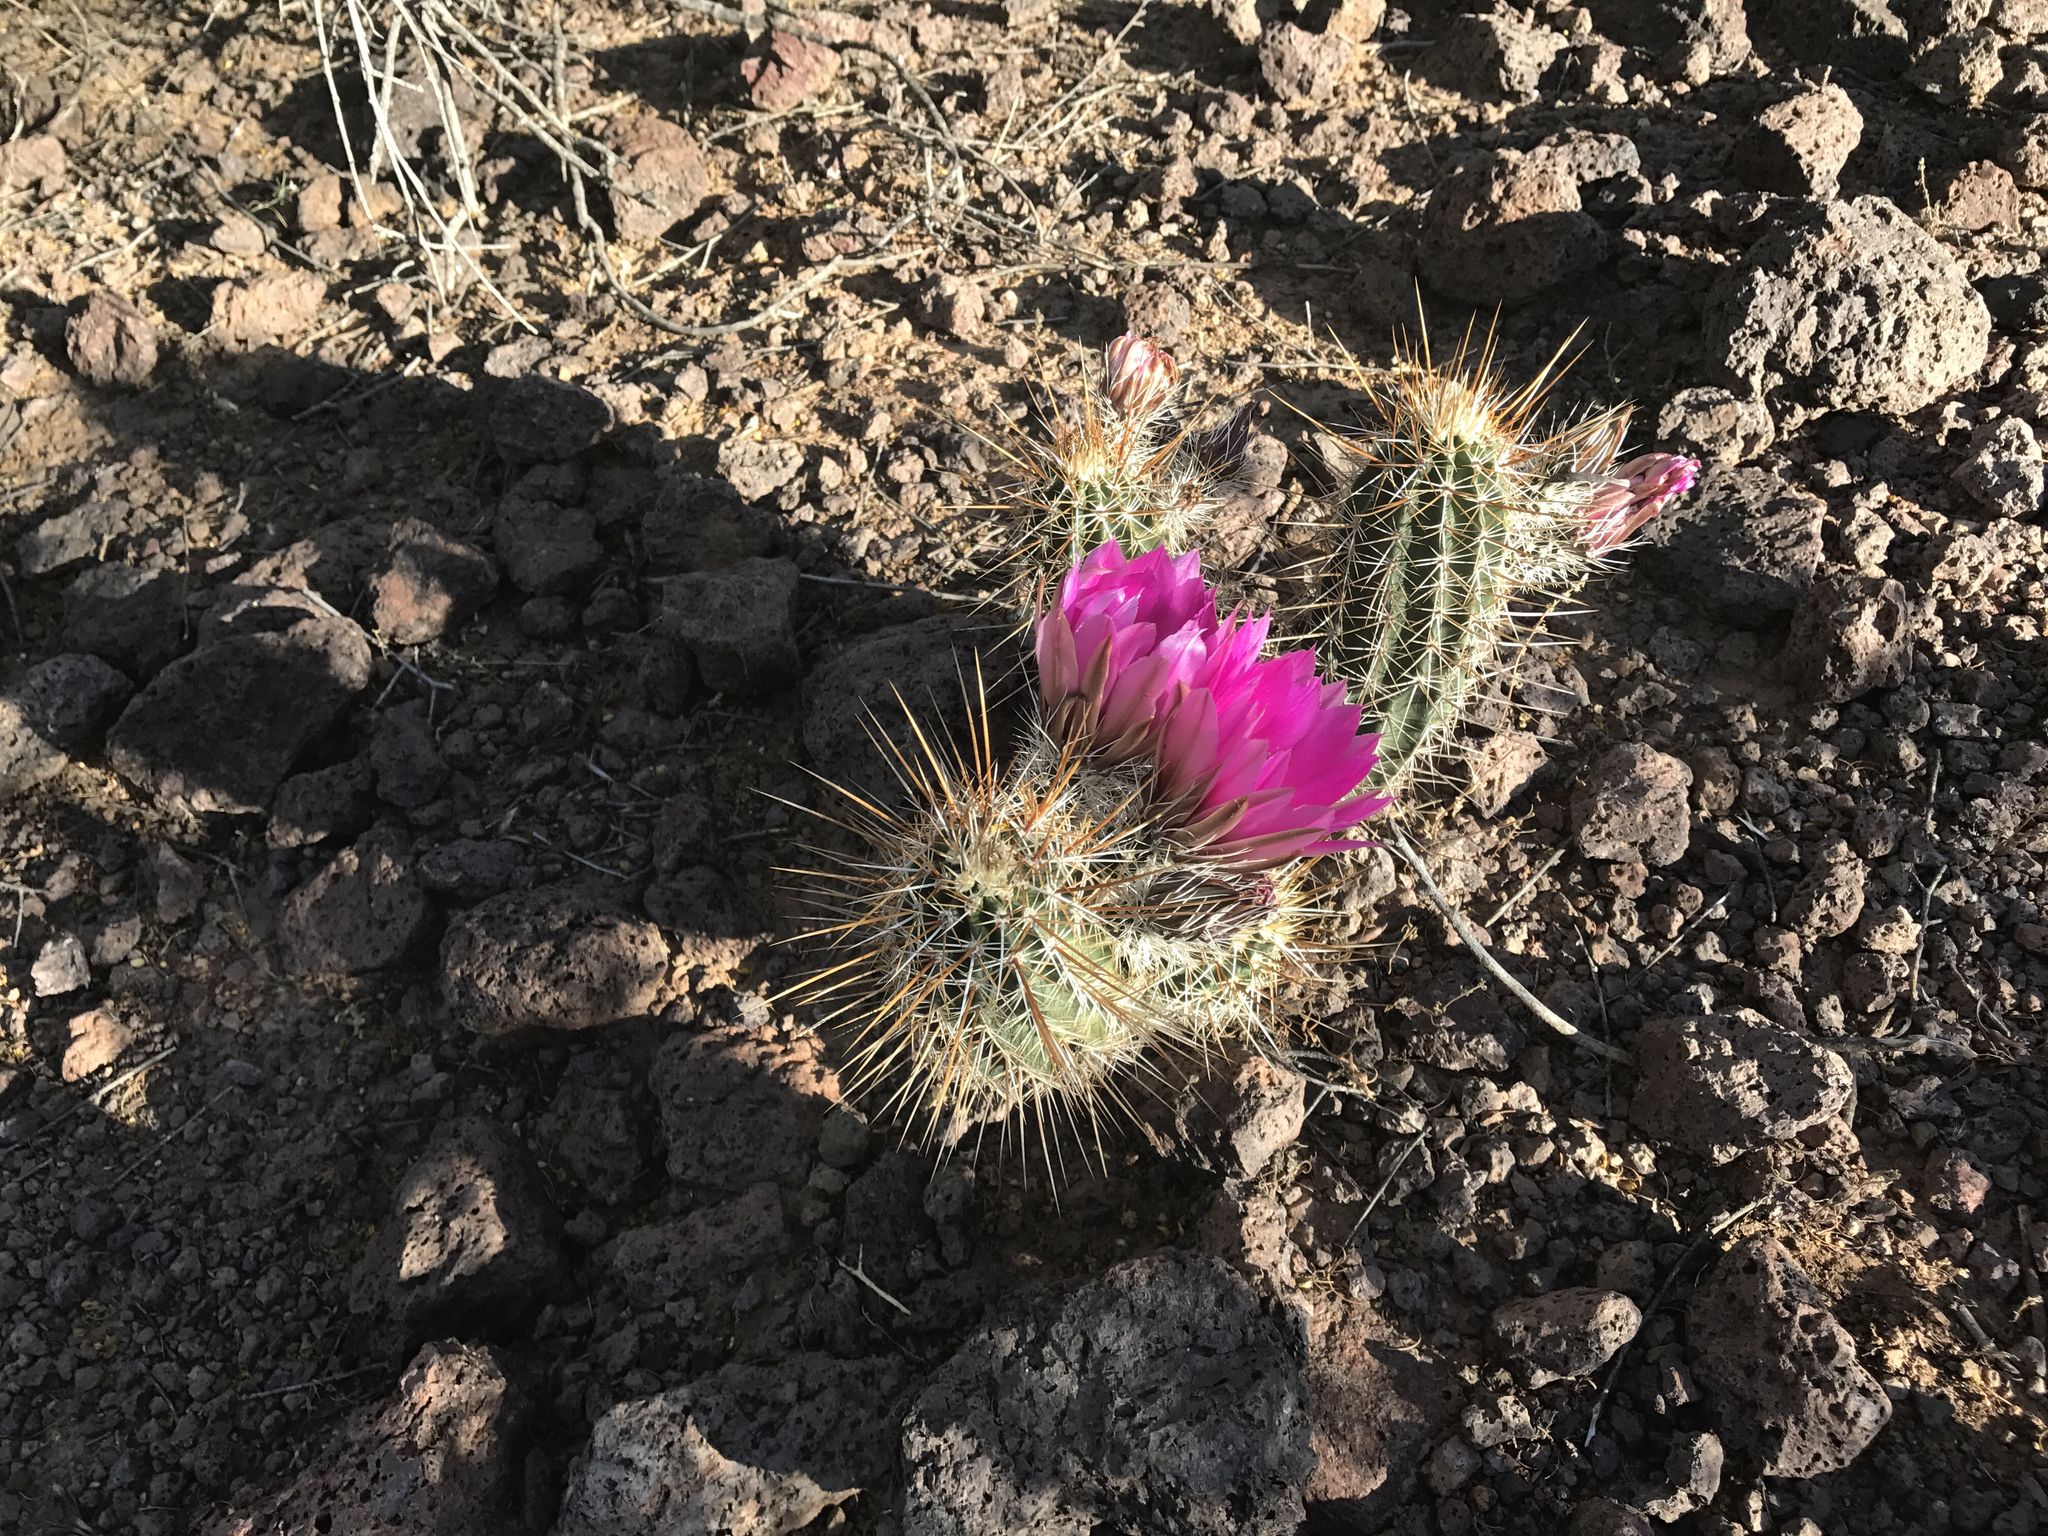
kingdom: Plantae
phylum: Tracheophyta
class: Magnoliopsida
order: Caryophyllales
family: Cactaceae
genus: Echinocereus
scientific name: Echinocereus fasciculatus
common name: Bundle hedgehog
